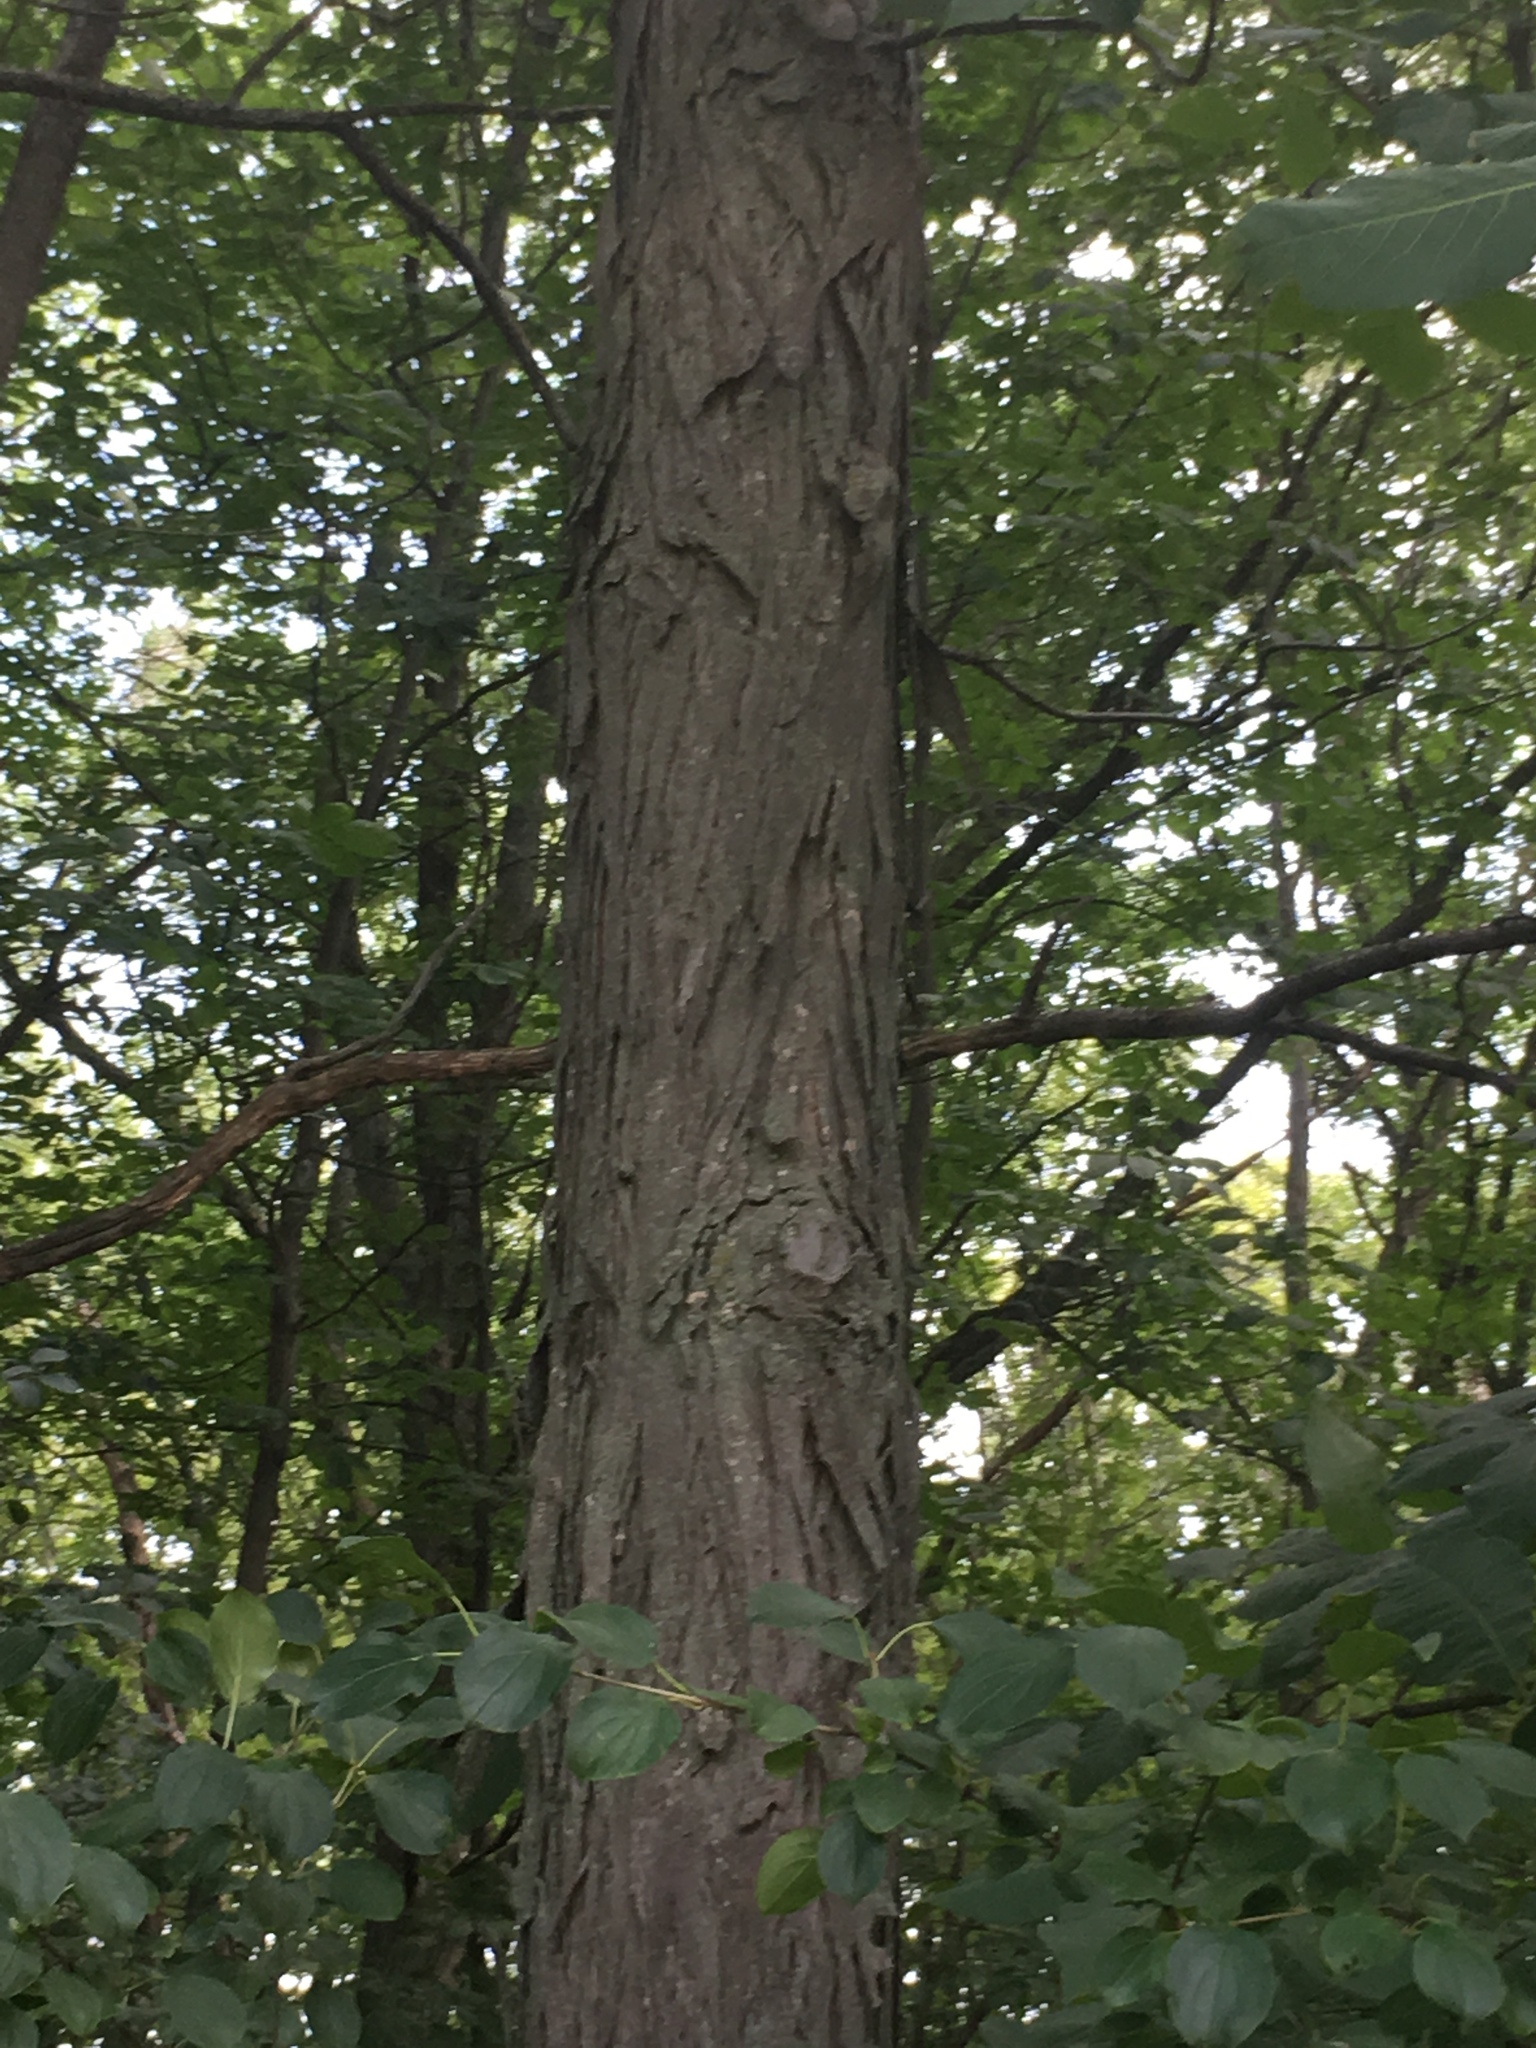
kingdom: Plantae
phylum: Tracheophyta
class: Magnoliopsida
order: Fagales
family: Juglandaceae
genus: Carya
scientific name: Carya ovata
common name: Shagbark hickory
